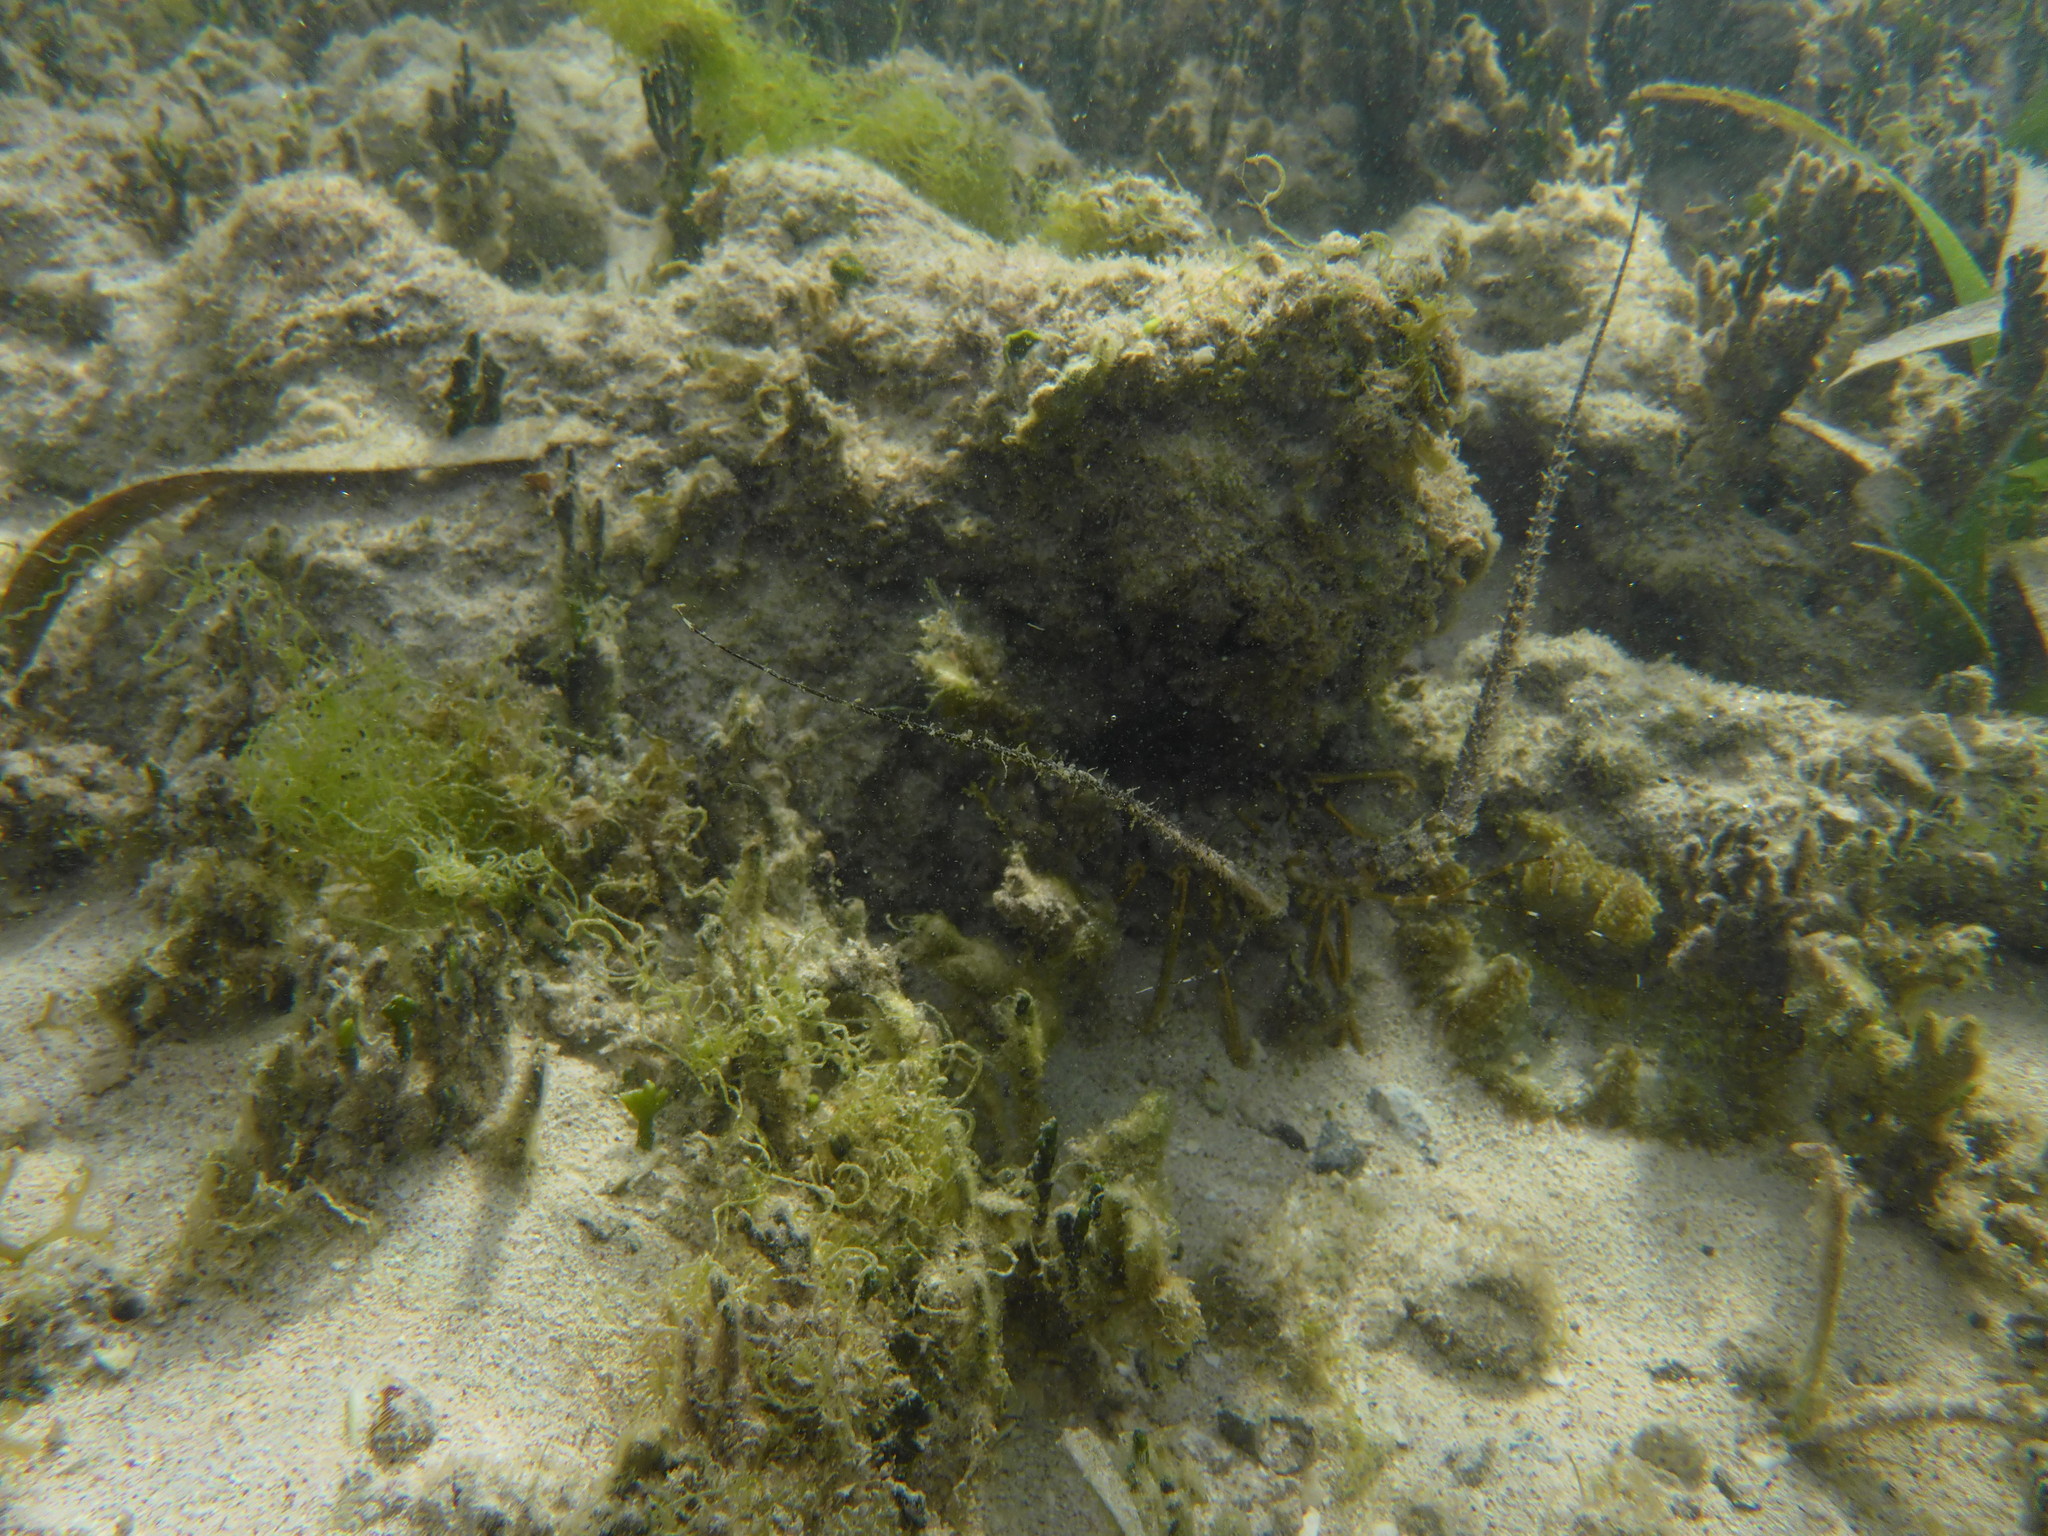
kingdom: Animalia
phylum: Arthropoda
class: Malacostraca
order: Decapoda
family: Palinuridae
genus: Panulirus
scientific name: Panulirus argus
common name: Caribbean spiny lobster
